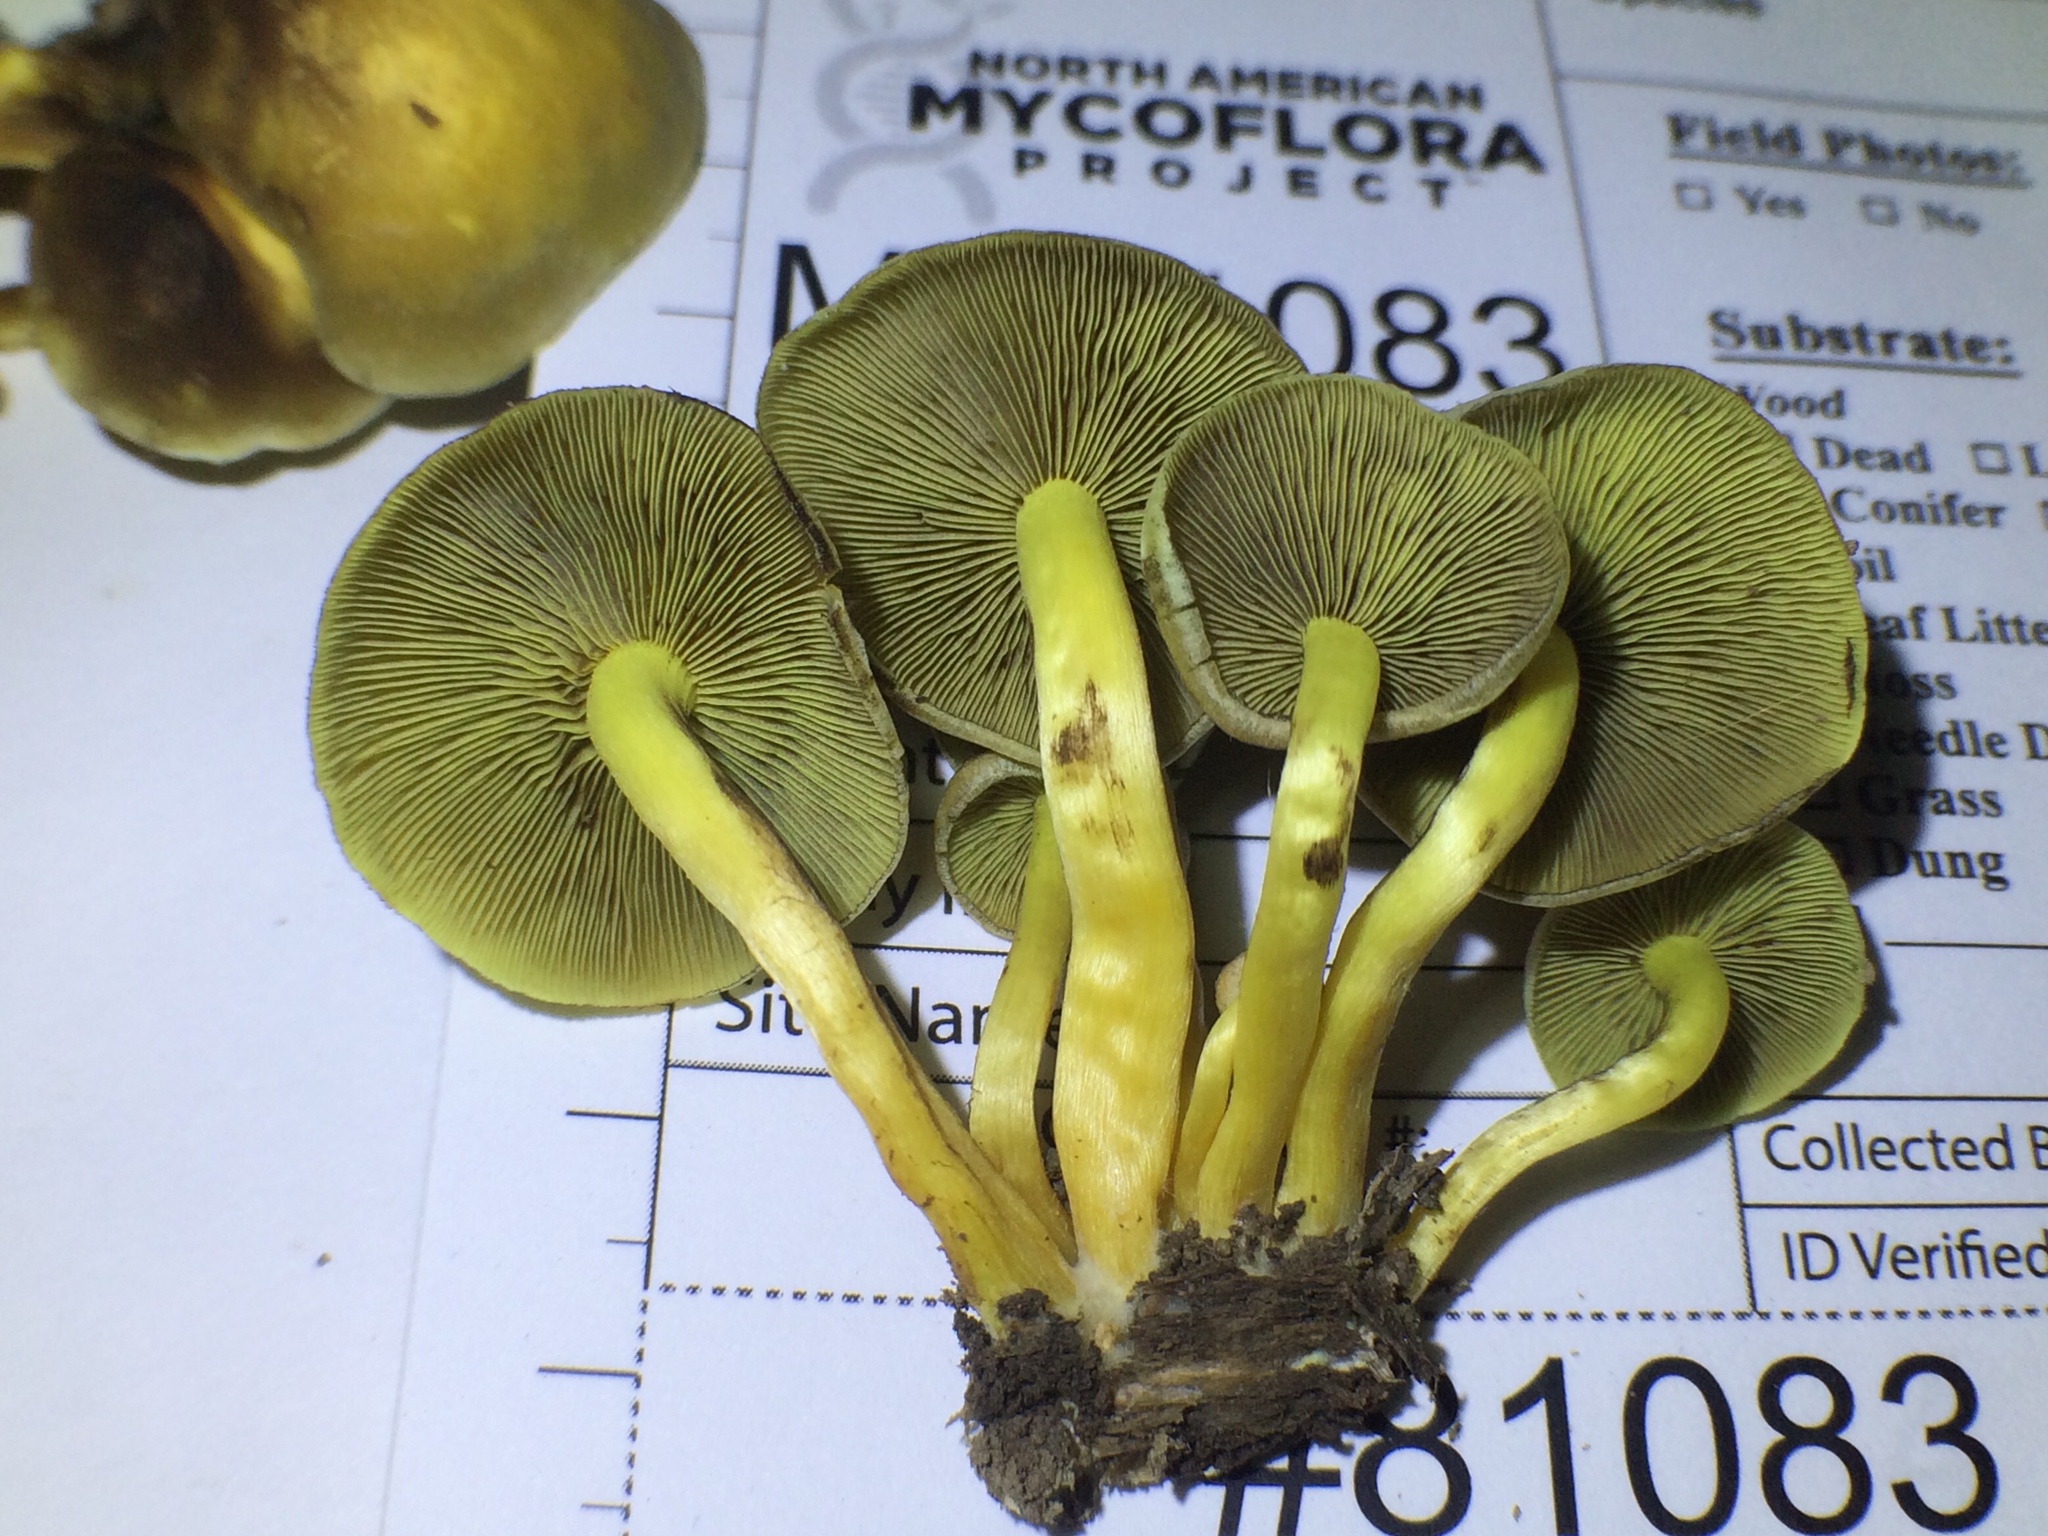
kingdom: Fungi
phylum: Basidiomycota
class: Agaricomycetes
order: Agaricales
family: Strophariaceae
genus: Hypholoma
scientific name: Hypholoma fasciculare
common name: Sulphur tuft
